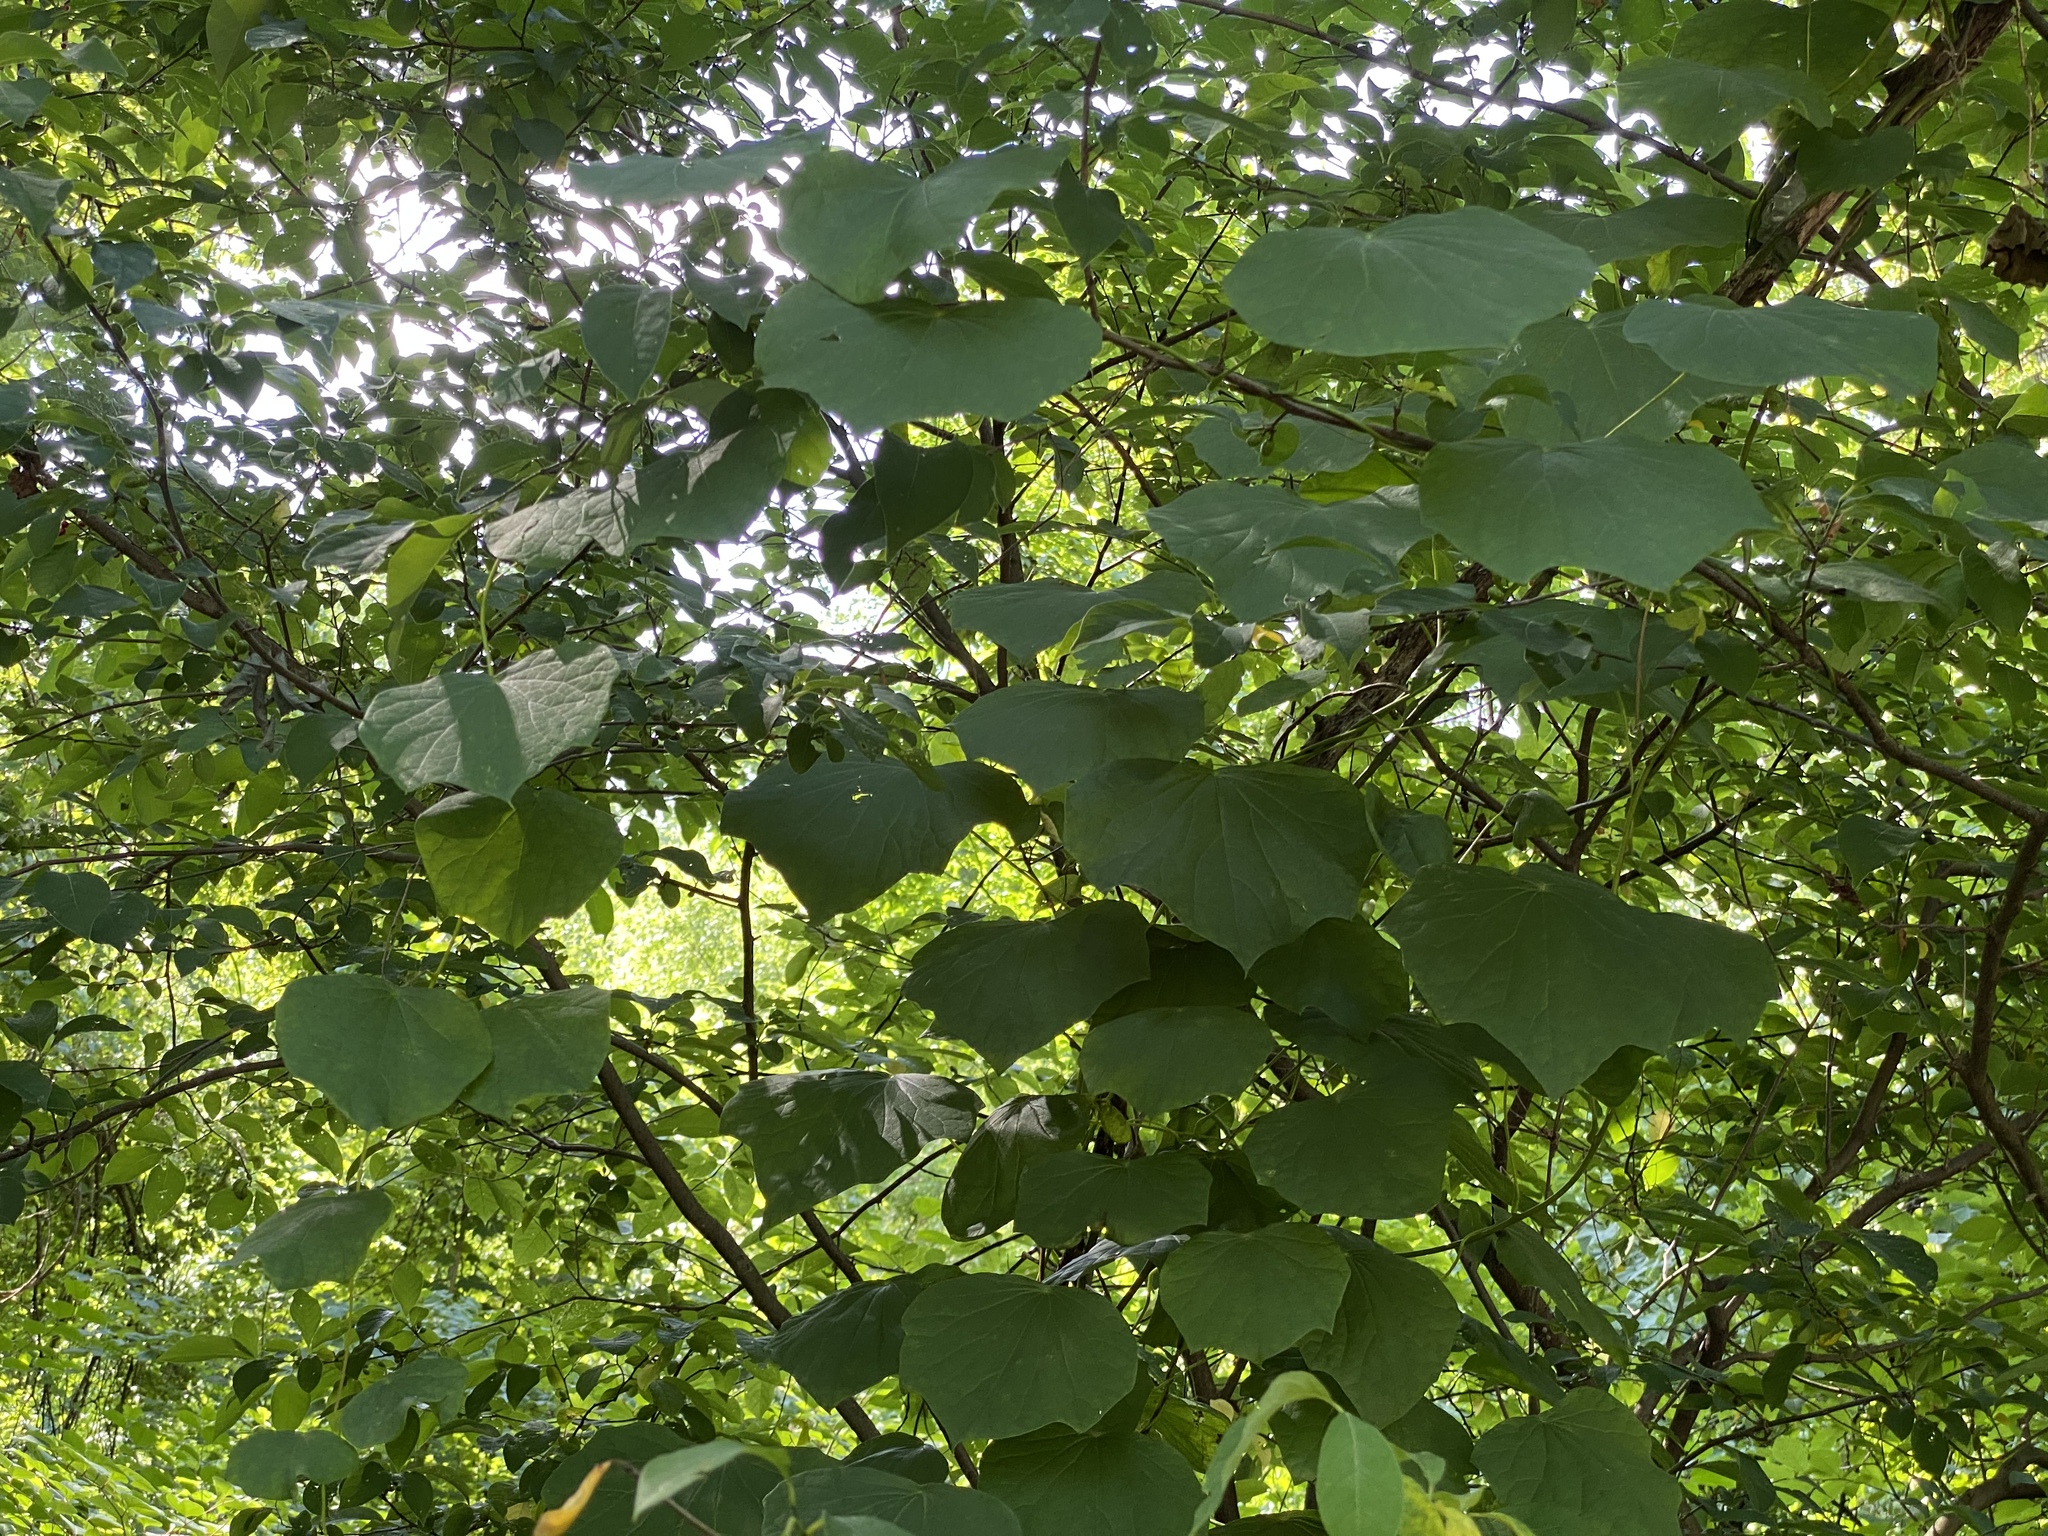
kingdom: Plantae
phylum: Tracheophyta
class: Magnoliopsida
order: Ranunculales
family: Menispermaceae
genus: Menispermum
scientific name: Menispermum canadense
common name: Moonseed
